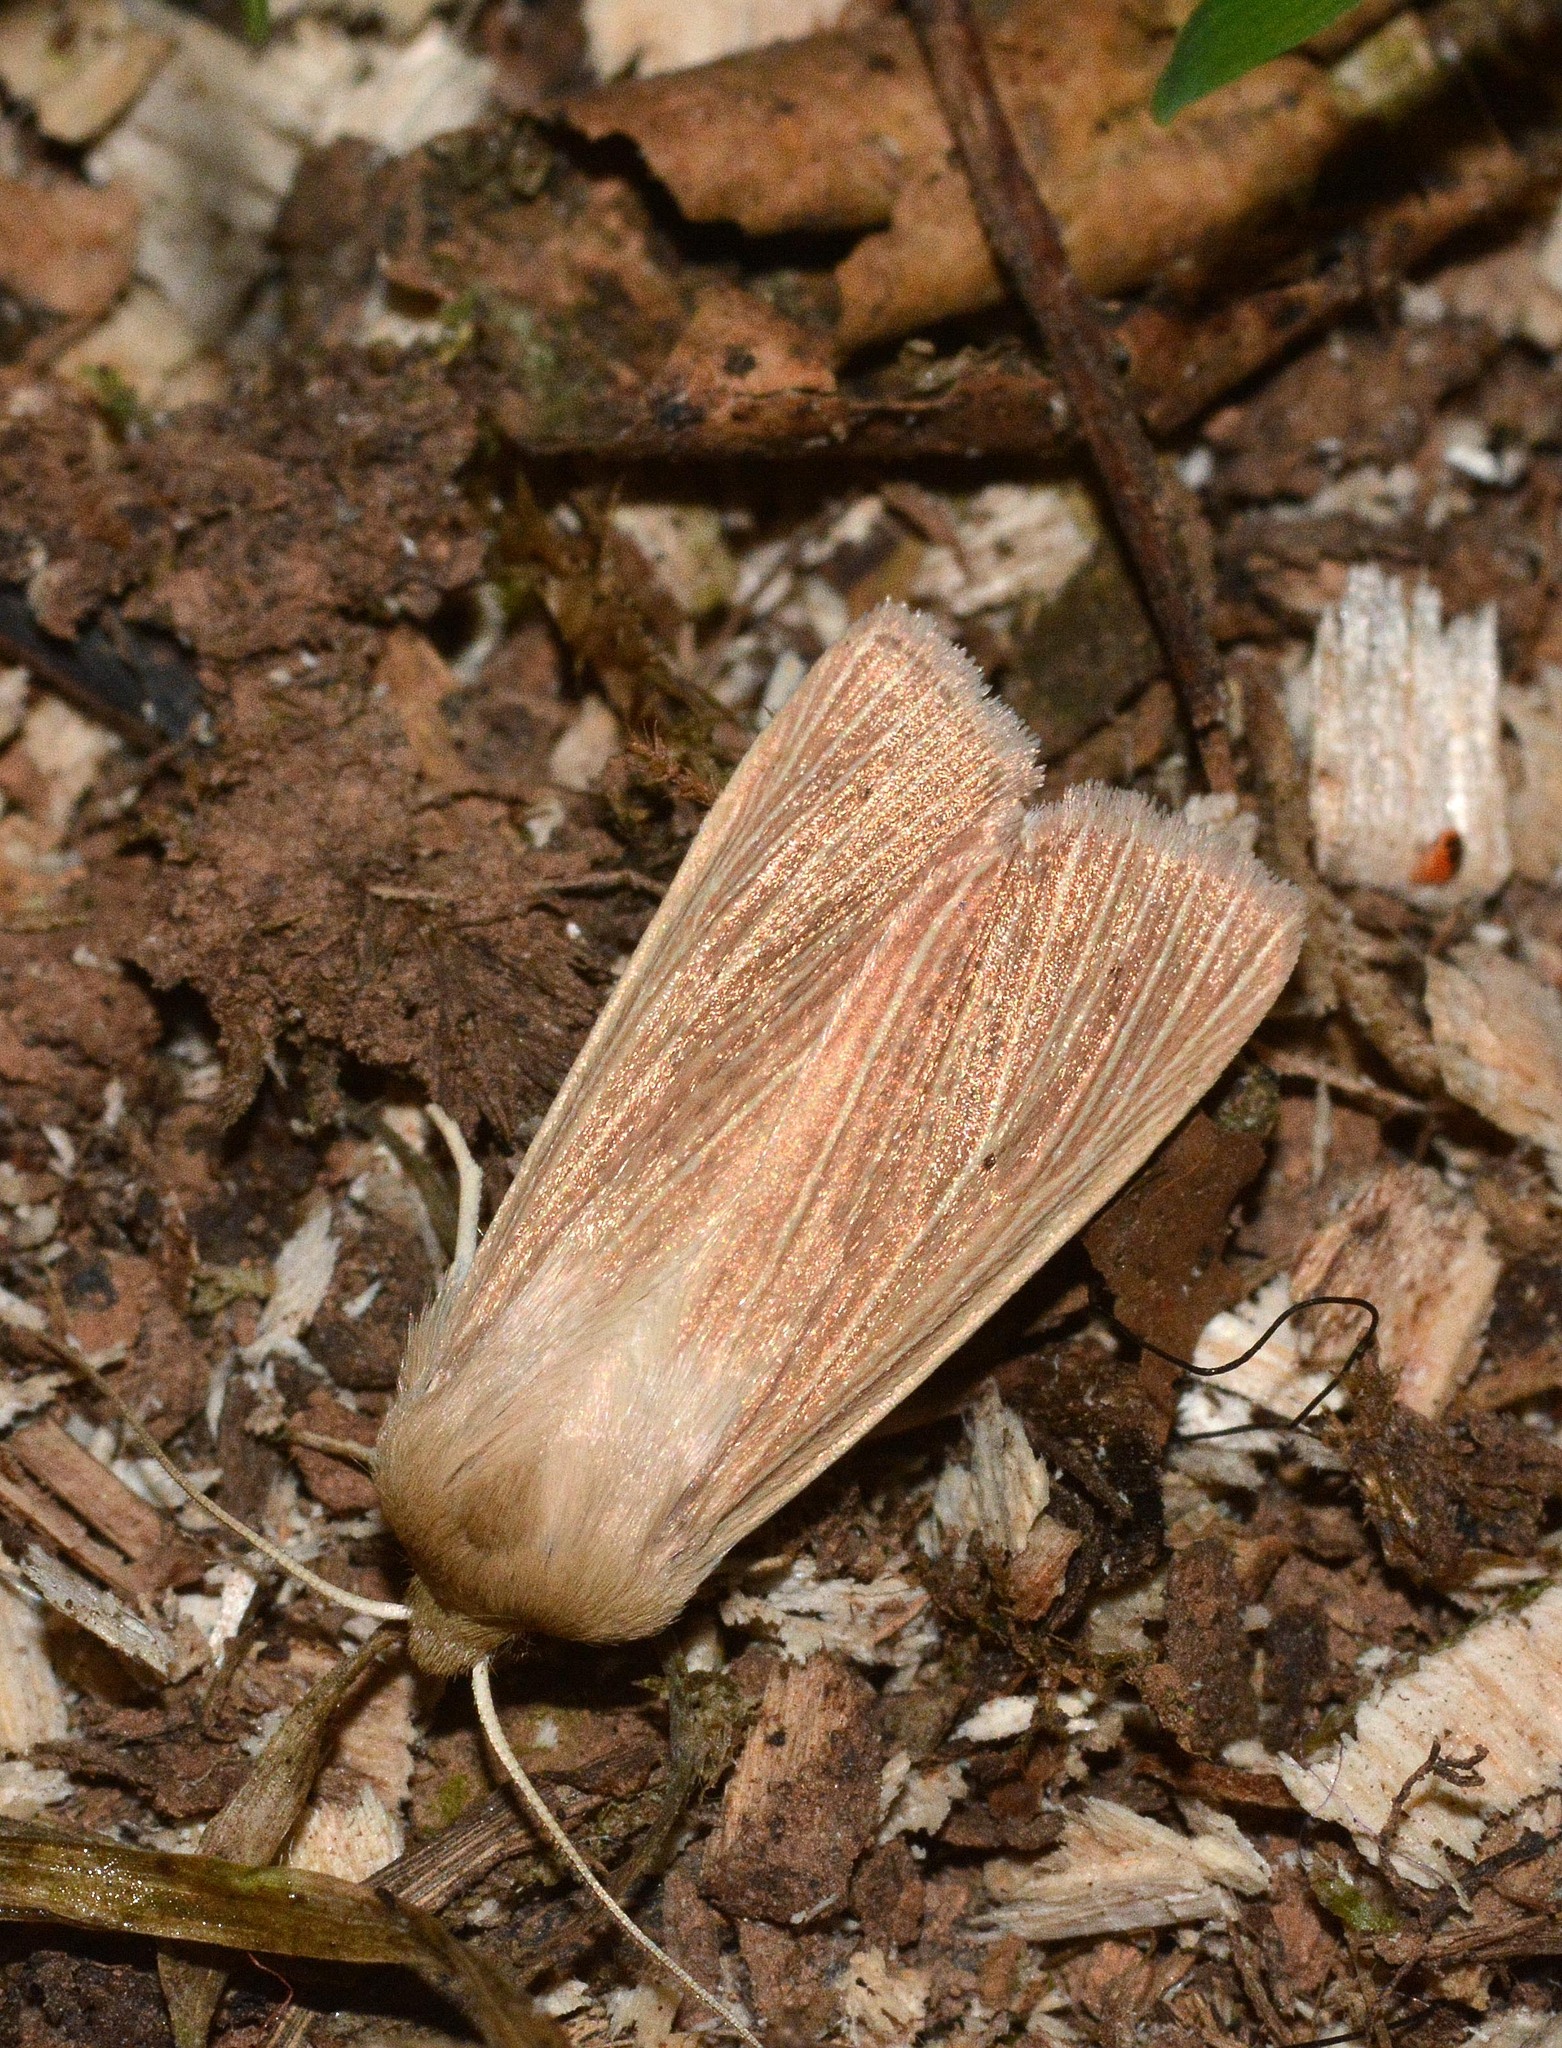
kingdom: Animalia
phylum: Arthropoda
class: Insecta
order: Lepidoptera
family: Noctuidae
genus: Mythimna
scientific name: Mythimna pallens
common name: Common wainscot
